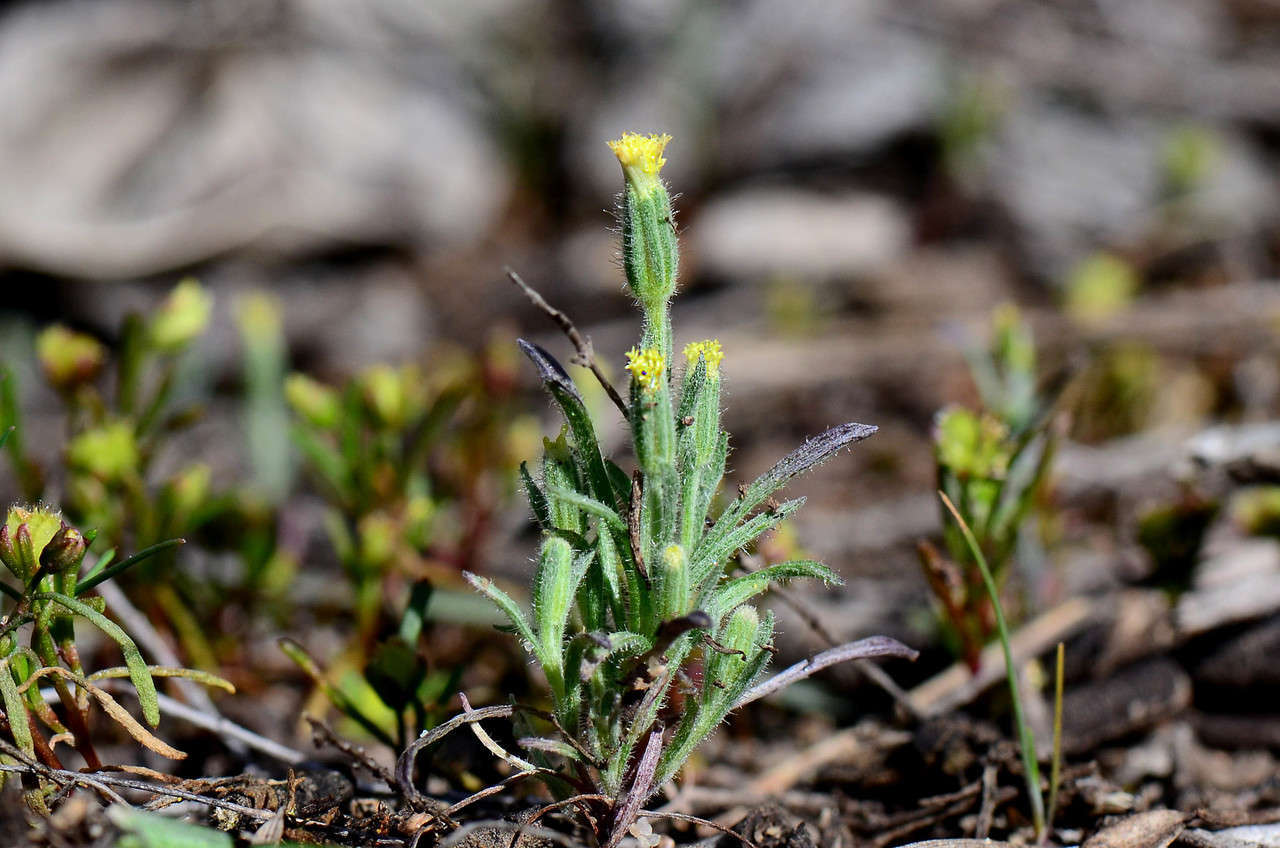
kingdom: Plantae
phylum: Tracheophyta
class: Magnoliopsida
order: Asterales
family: Asteraceae
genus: Millotia
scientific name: Millotia tenuifolia
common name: Soft millotia
